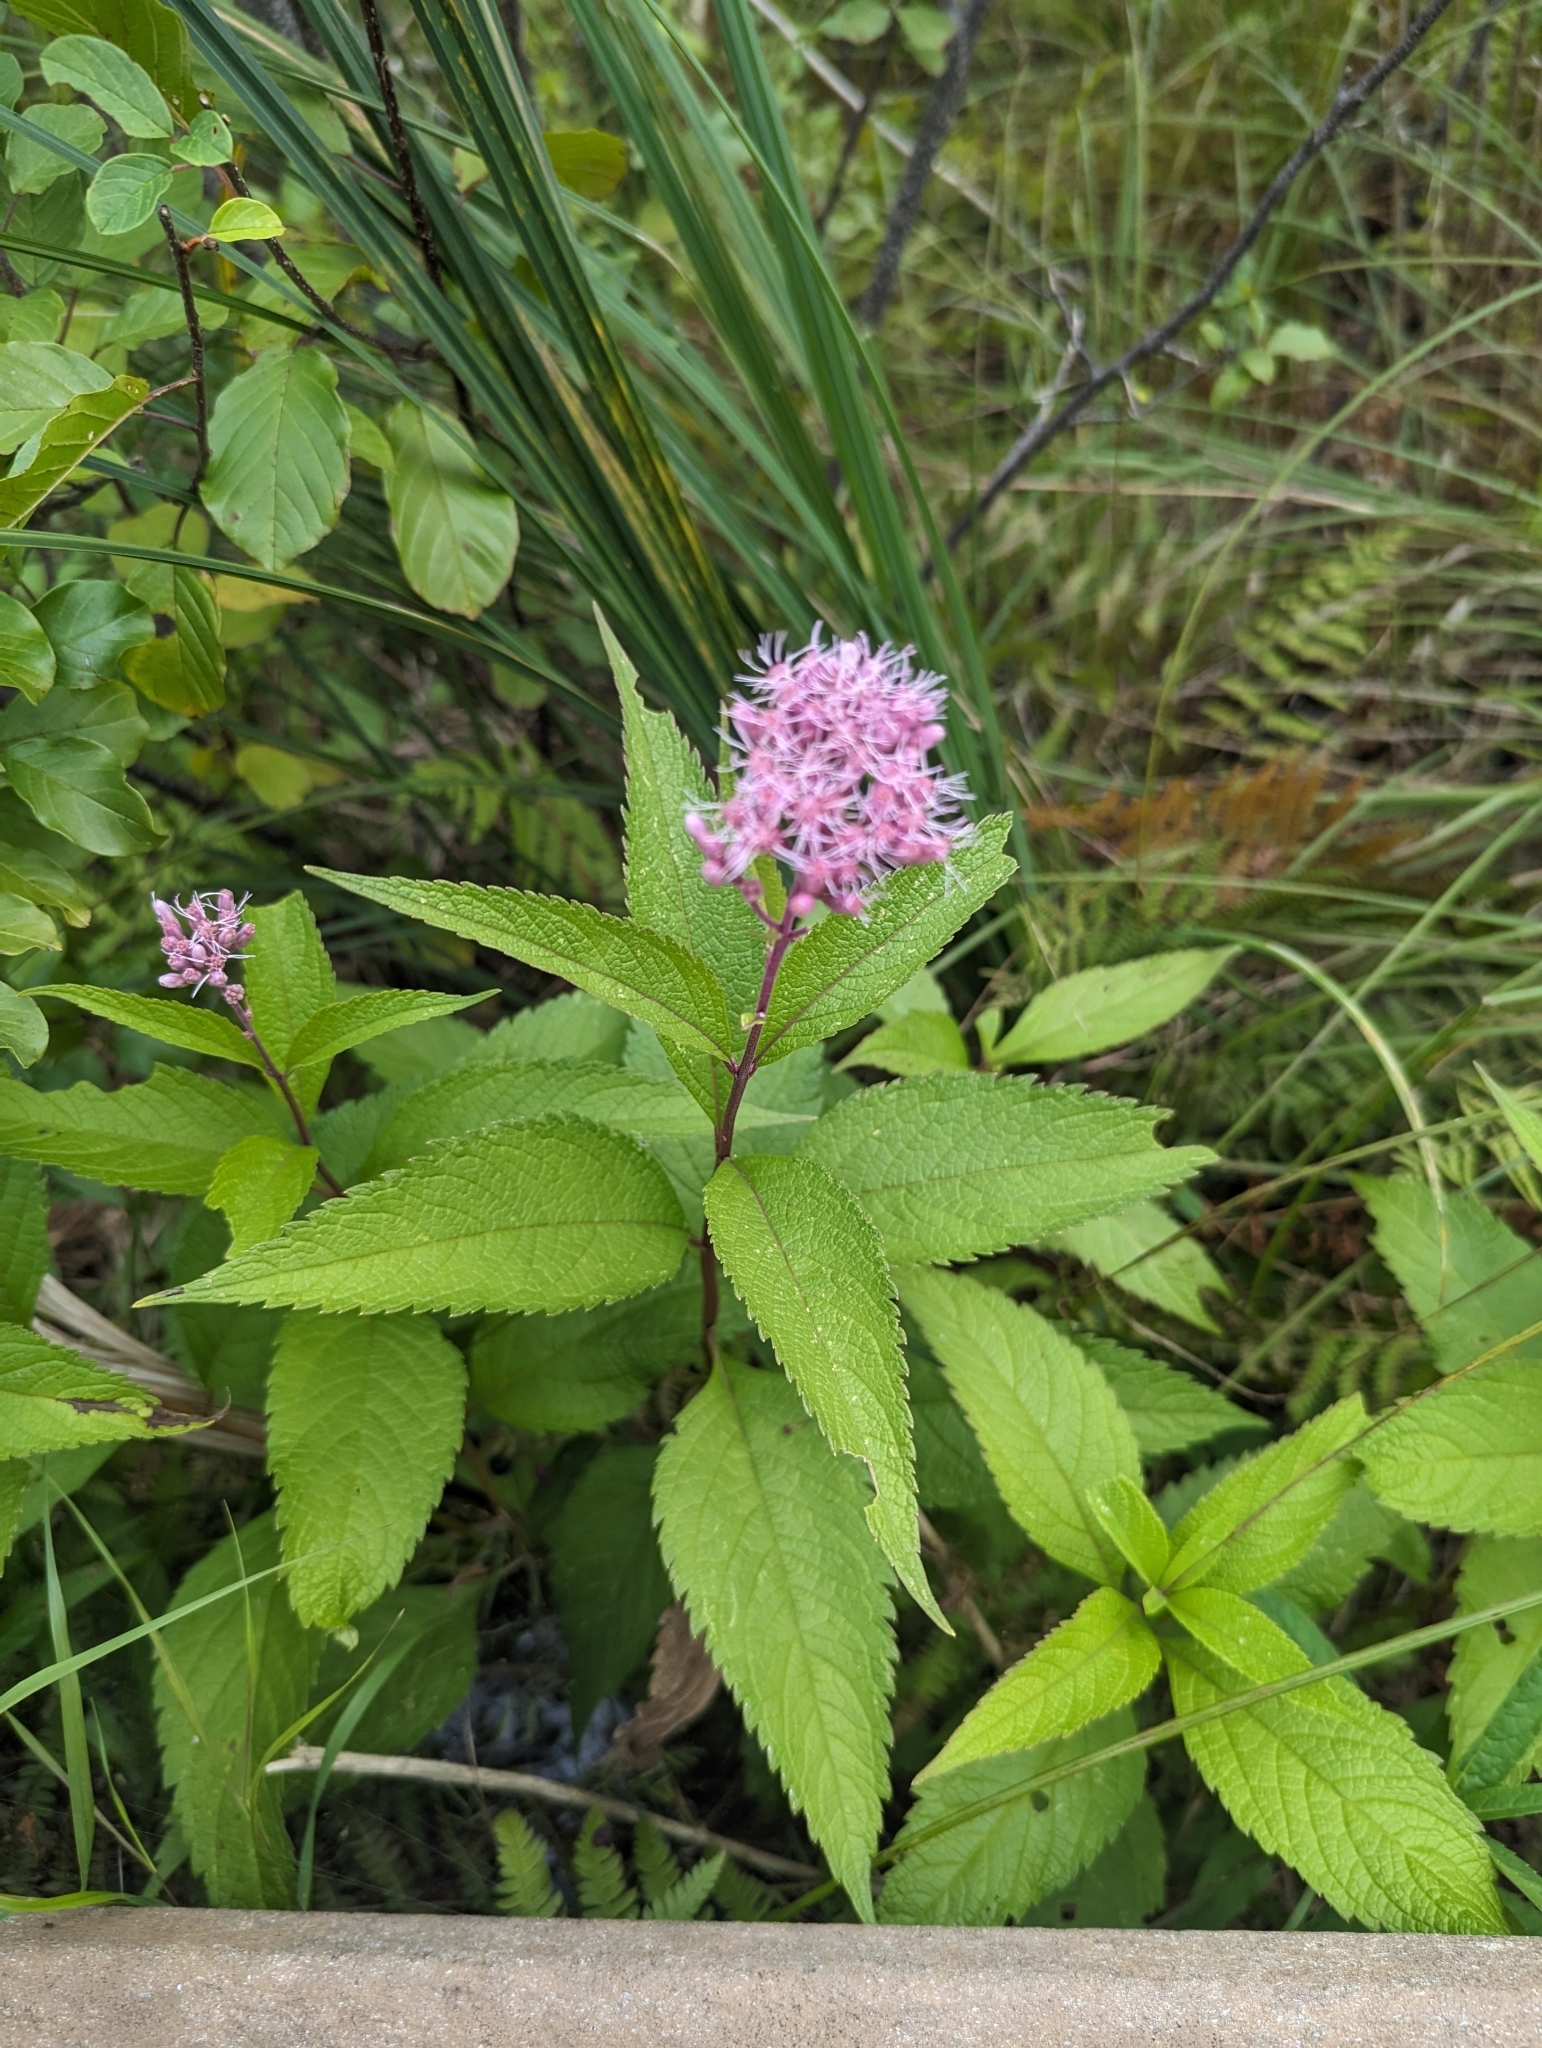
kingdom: Plantae
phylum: Tracheophyta
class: Magnoliopsida
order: Asterales
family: Asteraceae
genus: Eutrochium
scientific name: Eutrochium maculatum
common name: Spotted joe pye weed
